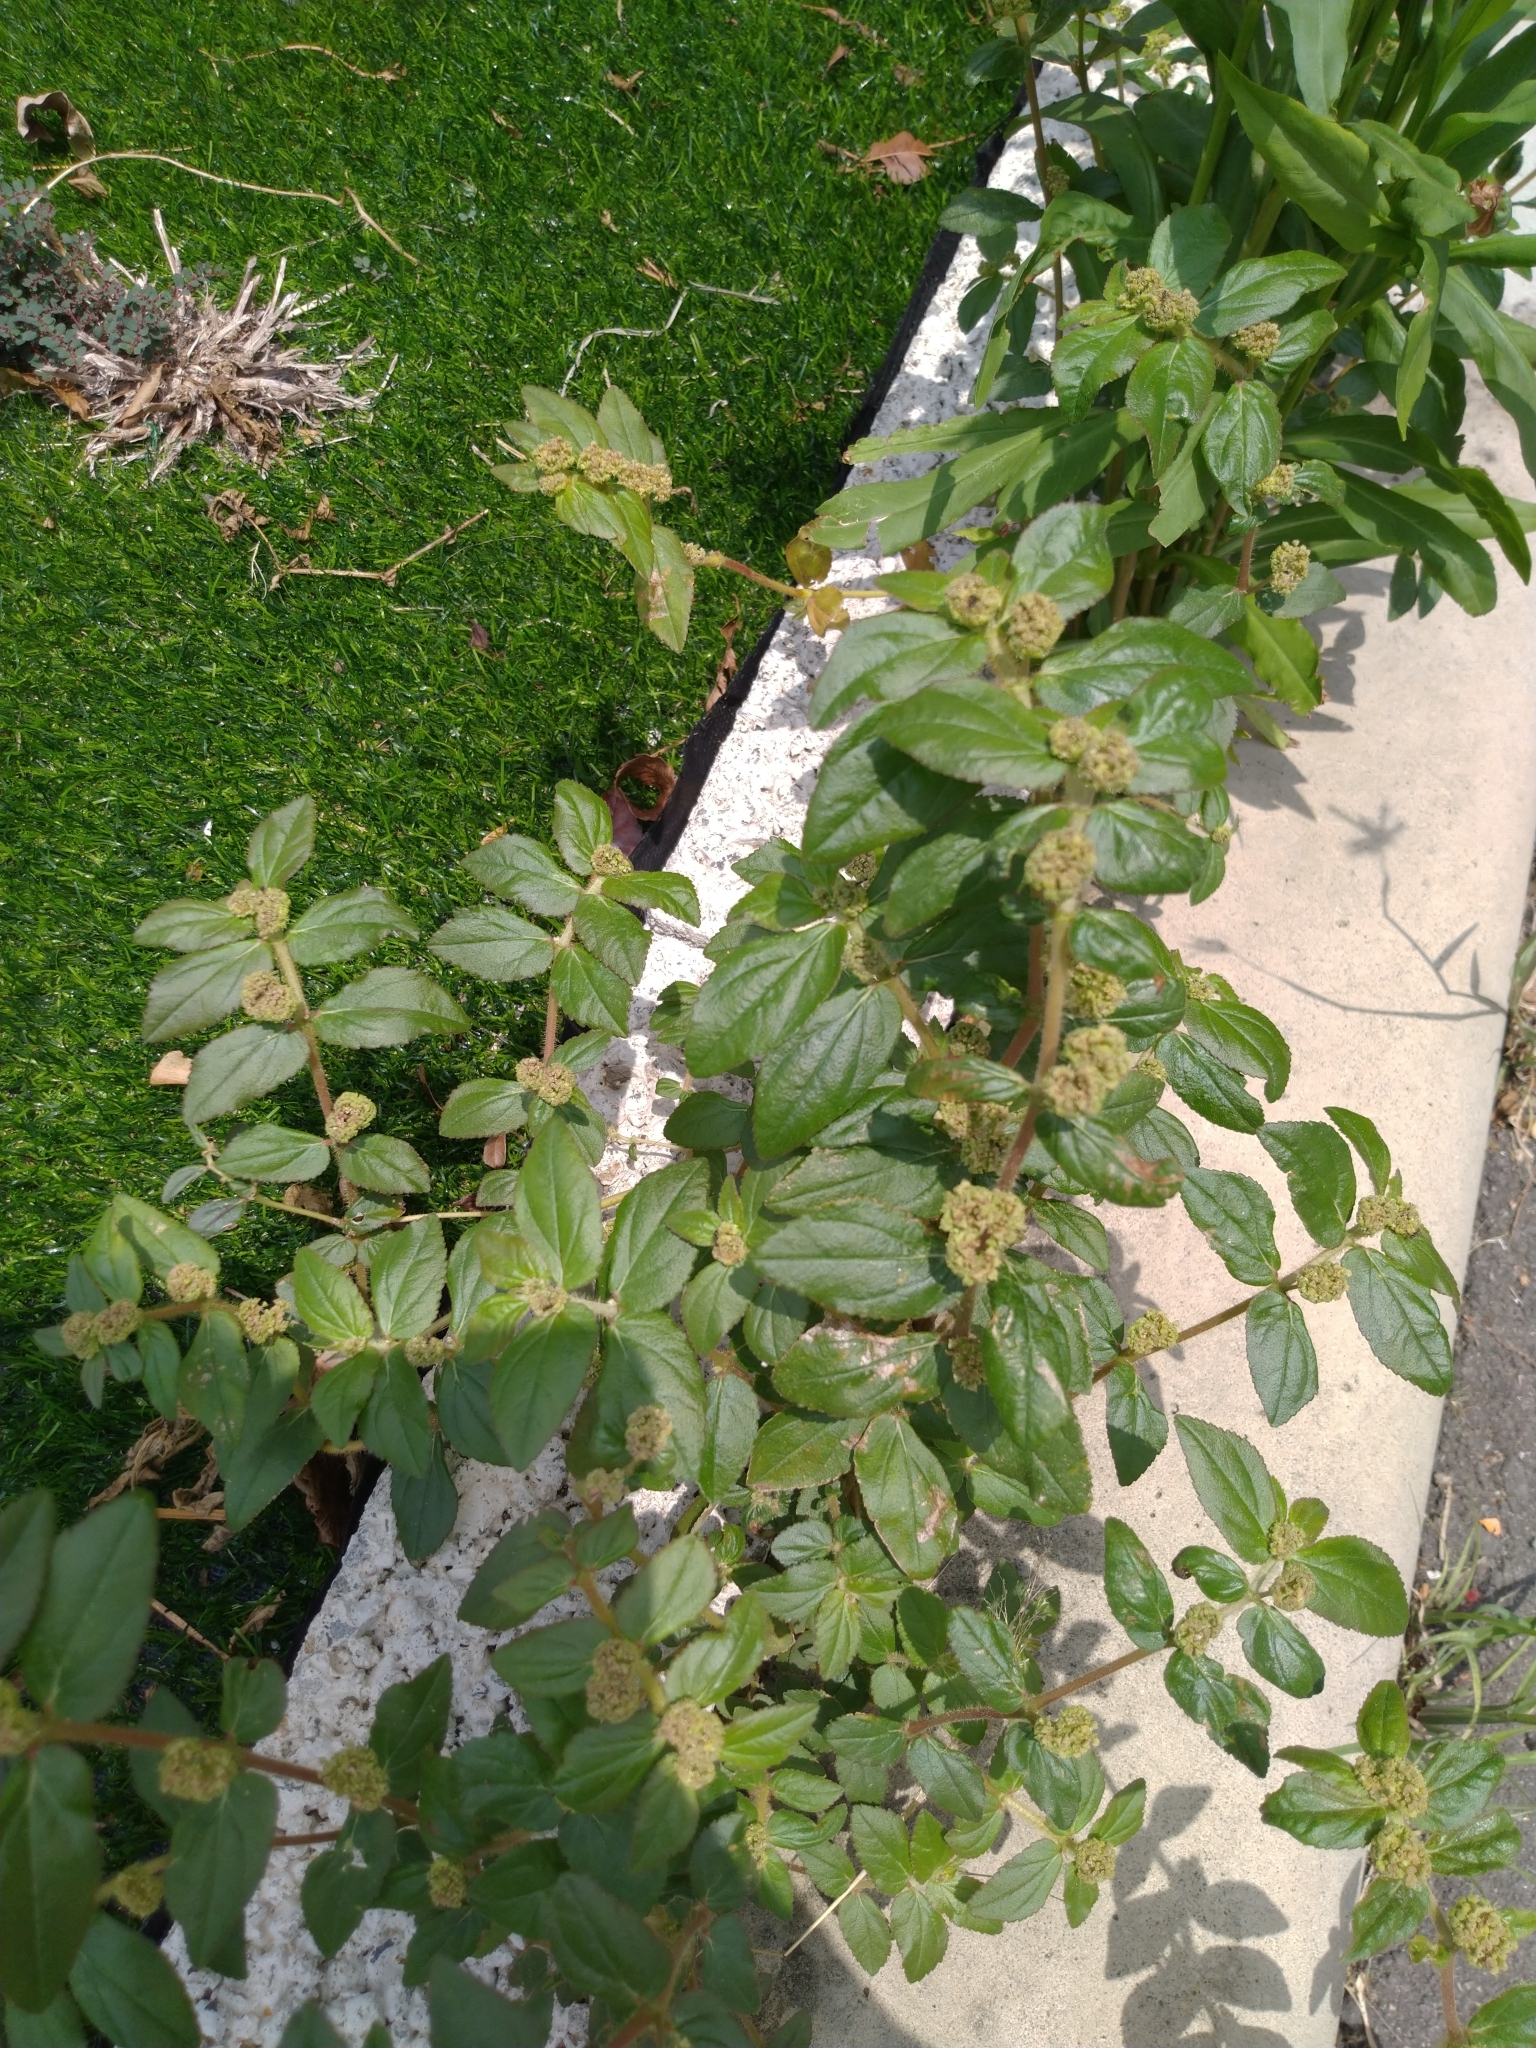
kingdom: Plantae
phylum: Tracheophyta
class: Magnoliopsida
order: Malpighiales
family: Euphorbiaceae
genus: Euphorbia
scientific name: Euphorbia hirta
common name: Pillpod sandmat
